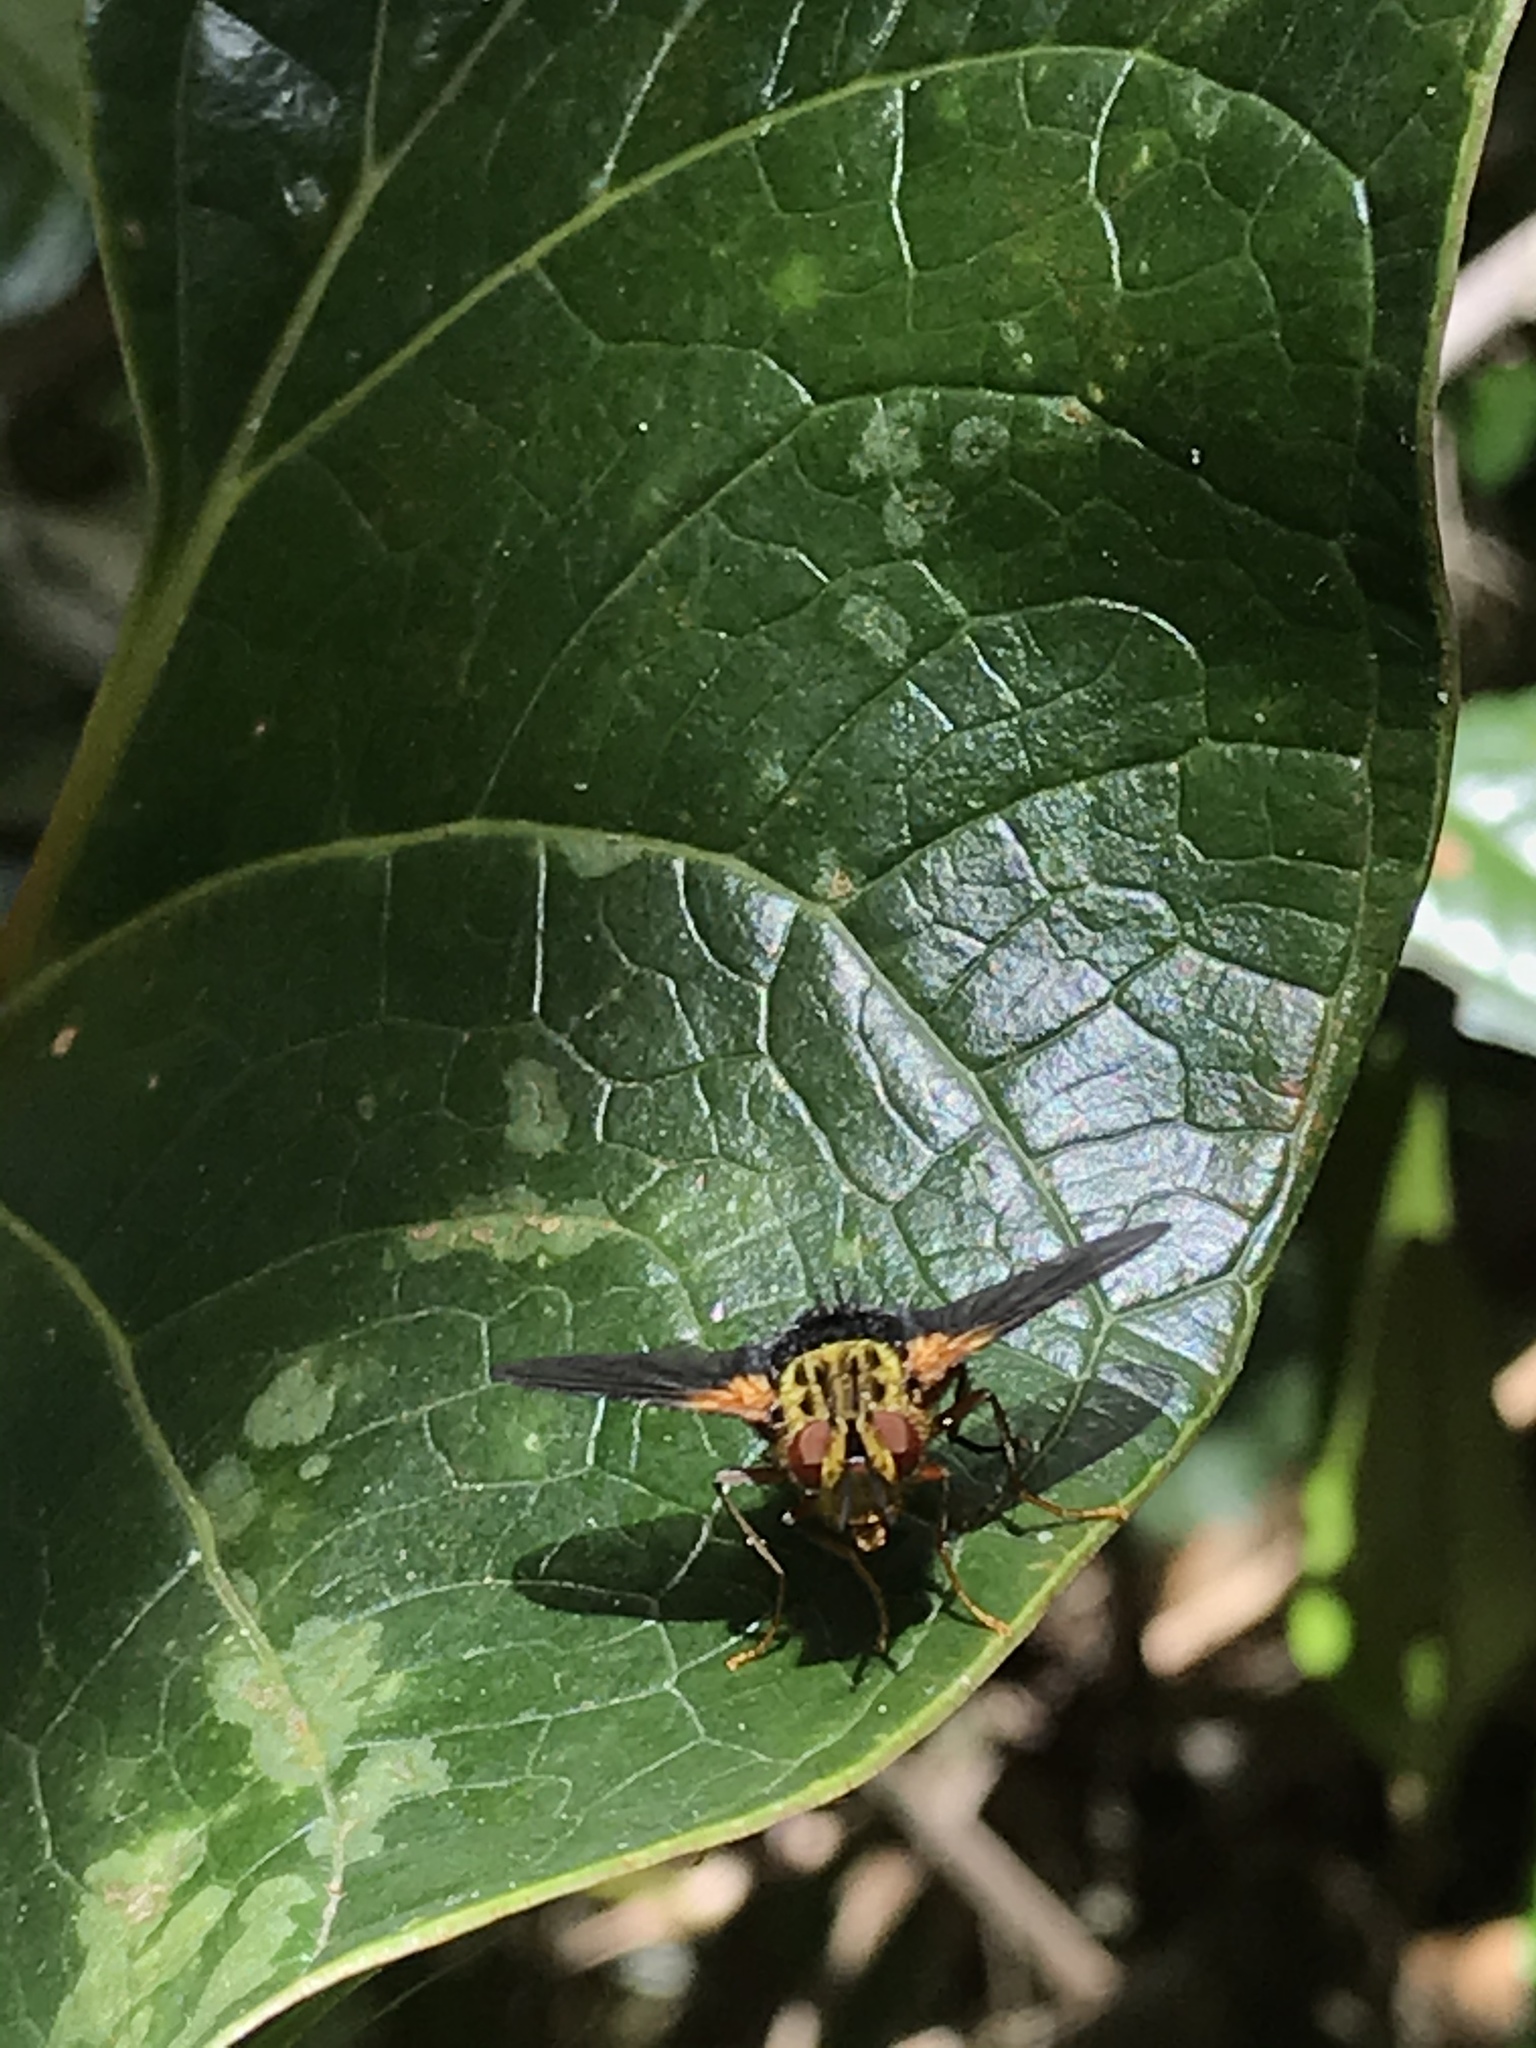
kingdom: Animalia
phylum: Arthropoda
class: Insecta
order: Diptera
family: Tachinidae
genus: Oharamyia
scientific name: Oharamyia plagiata
